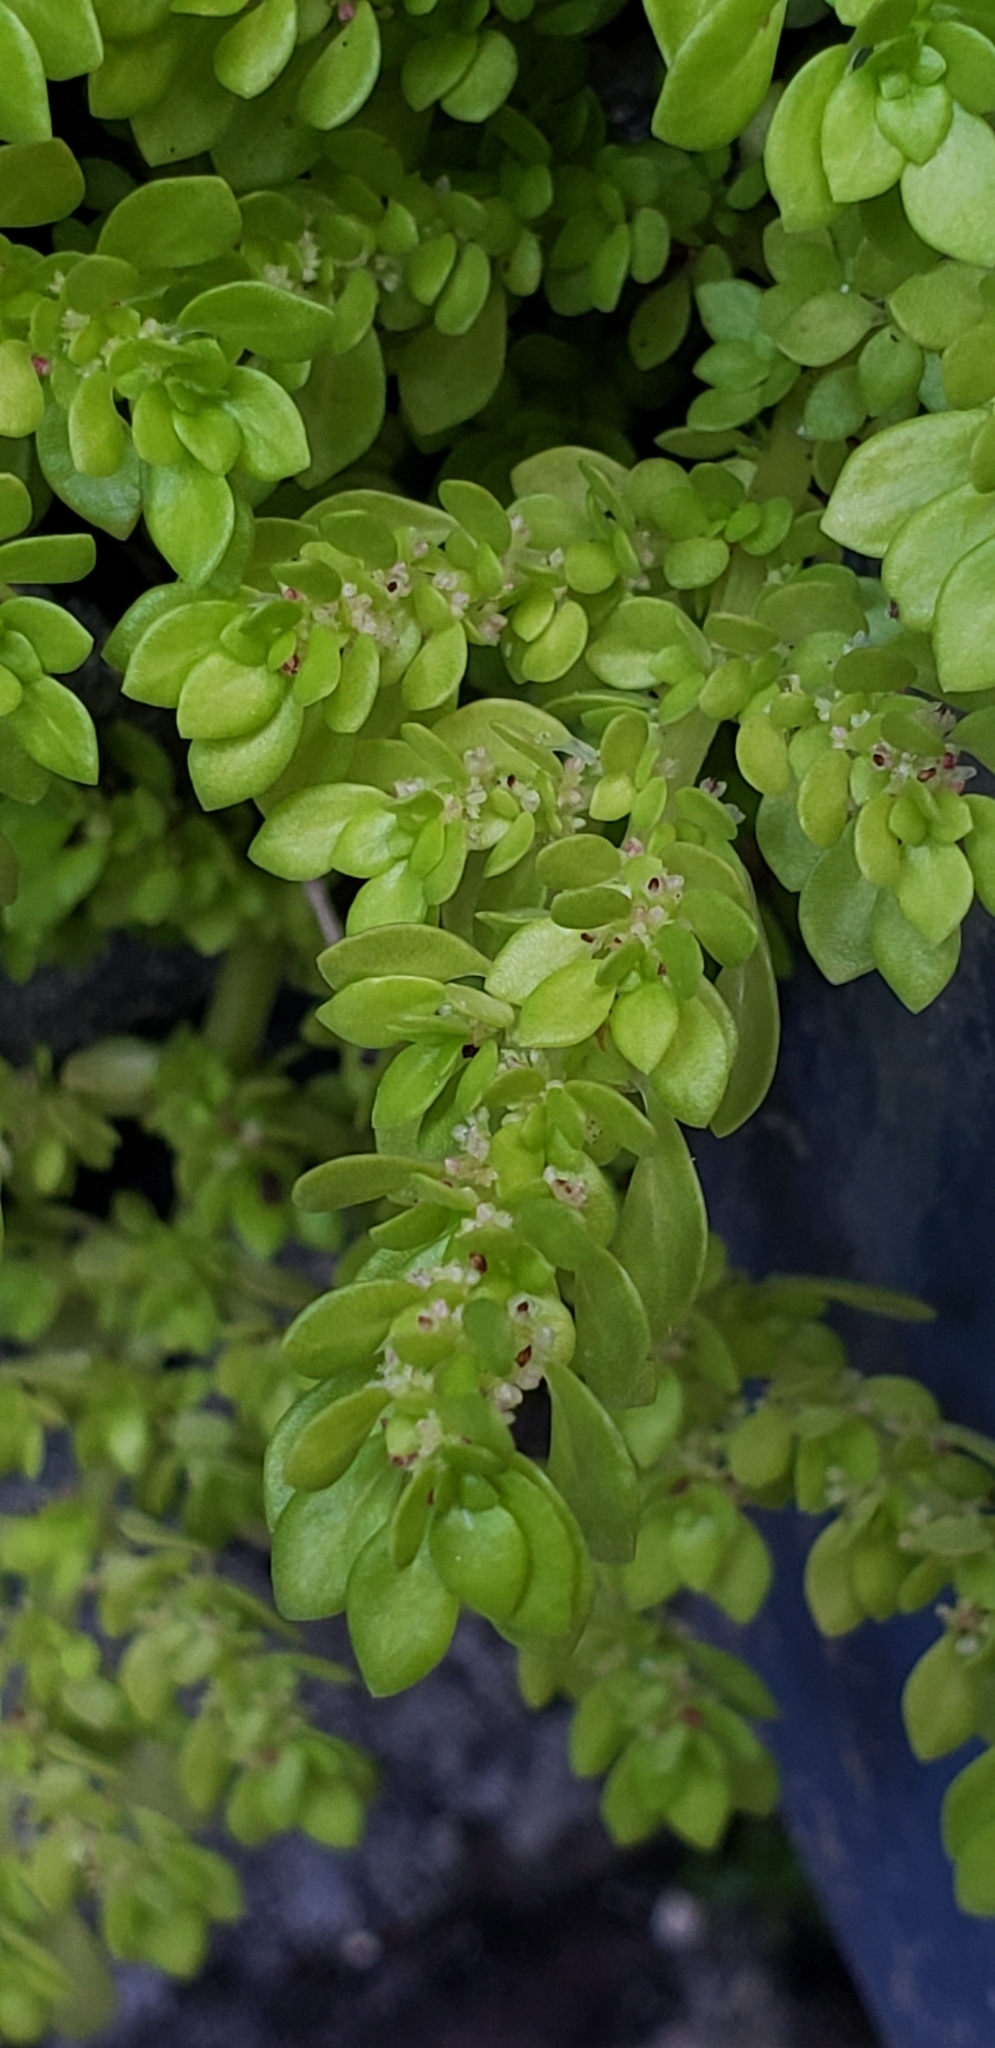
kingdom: Plantae
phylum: Tracheophyta
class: Magnoliopsida
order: Rosales
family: Urticaceae
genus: Pilea
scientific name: Pilea microphylla
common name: Artillery-plant
